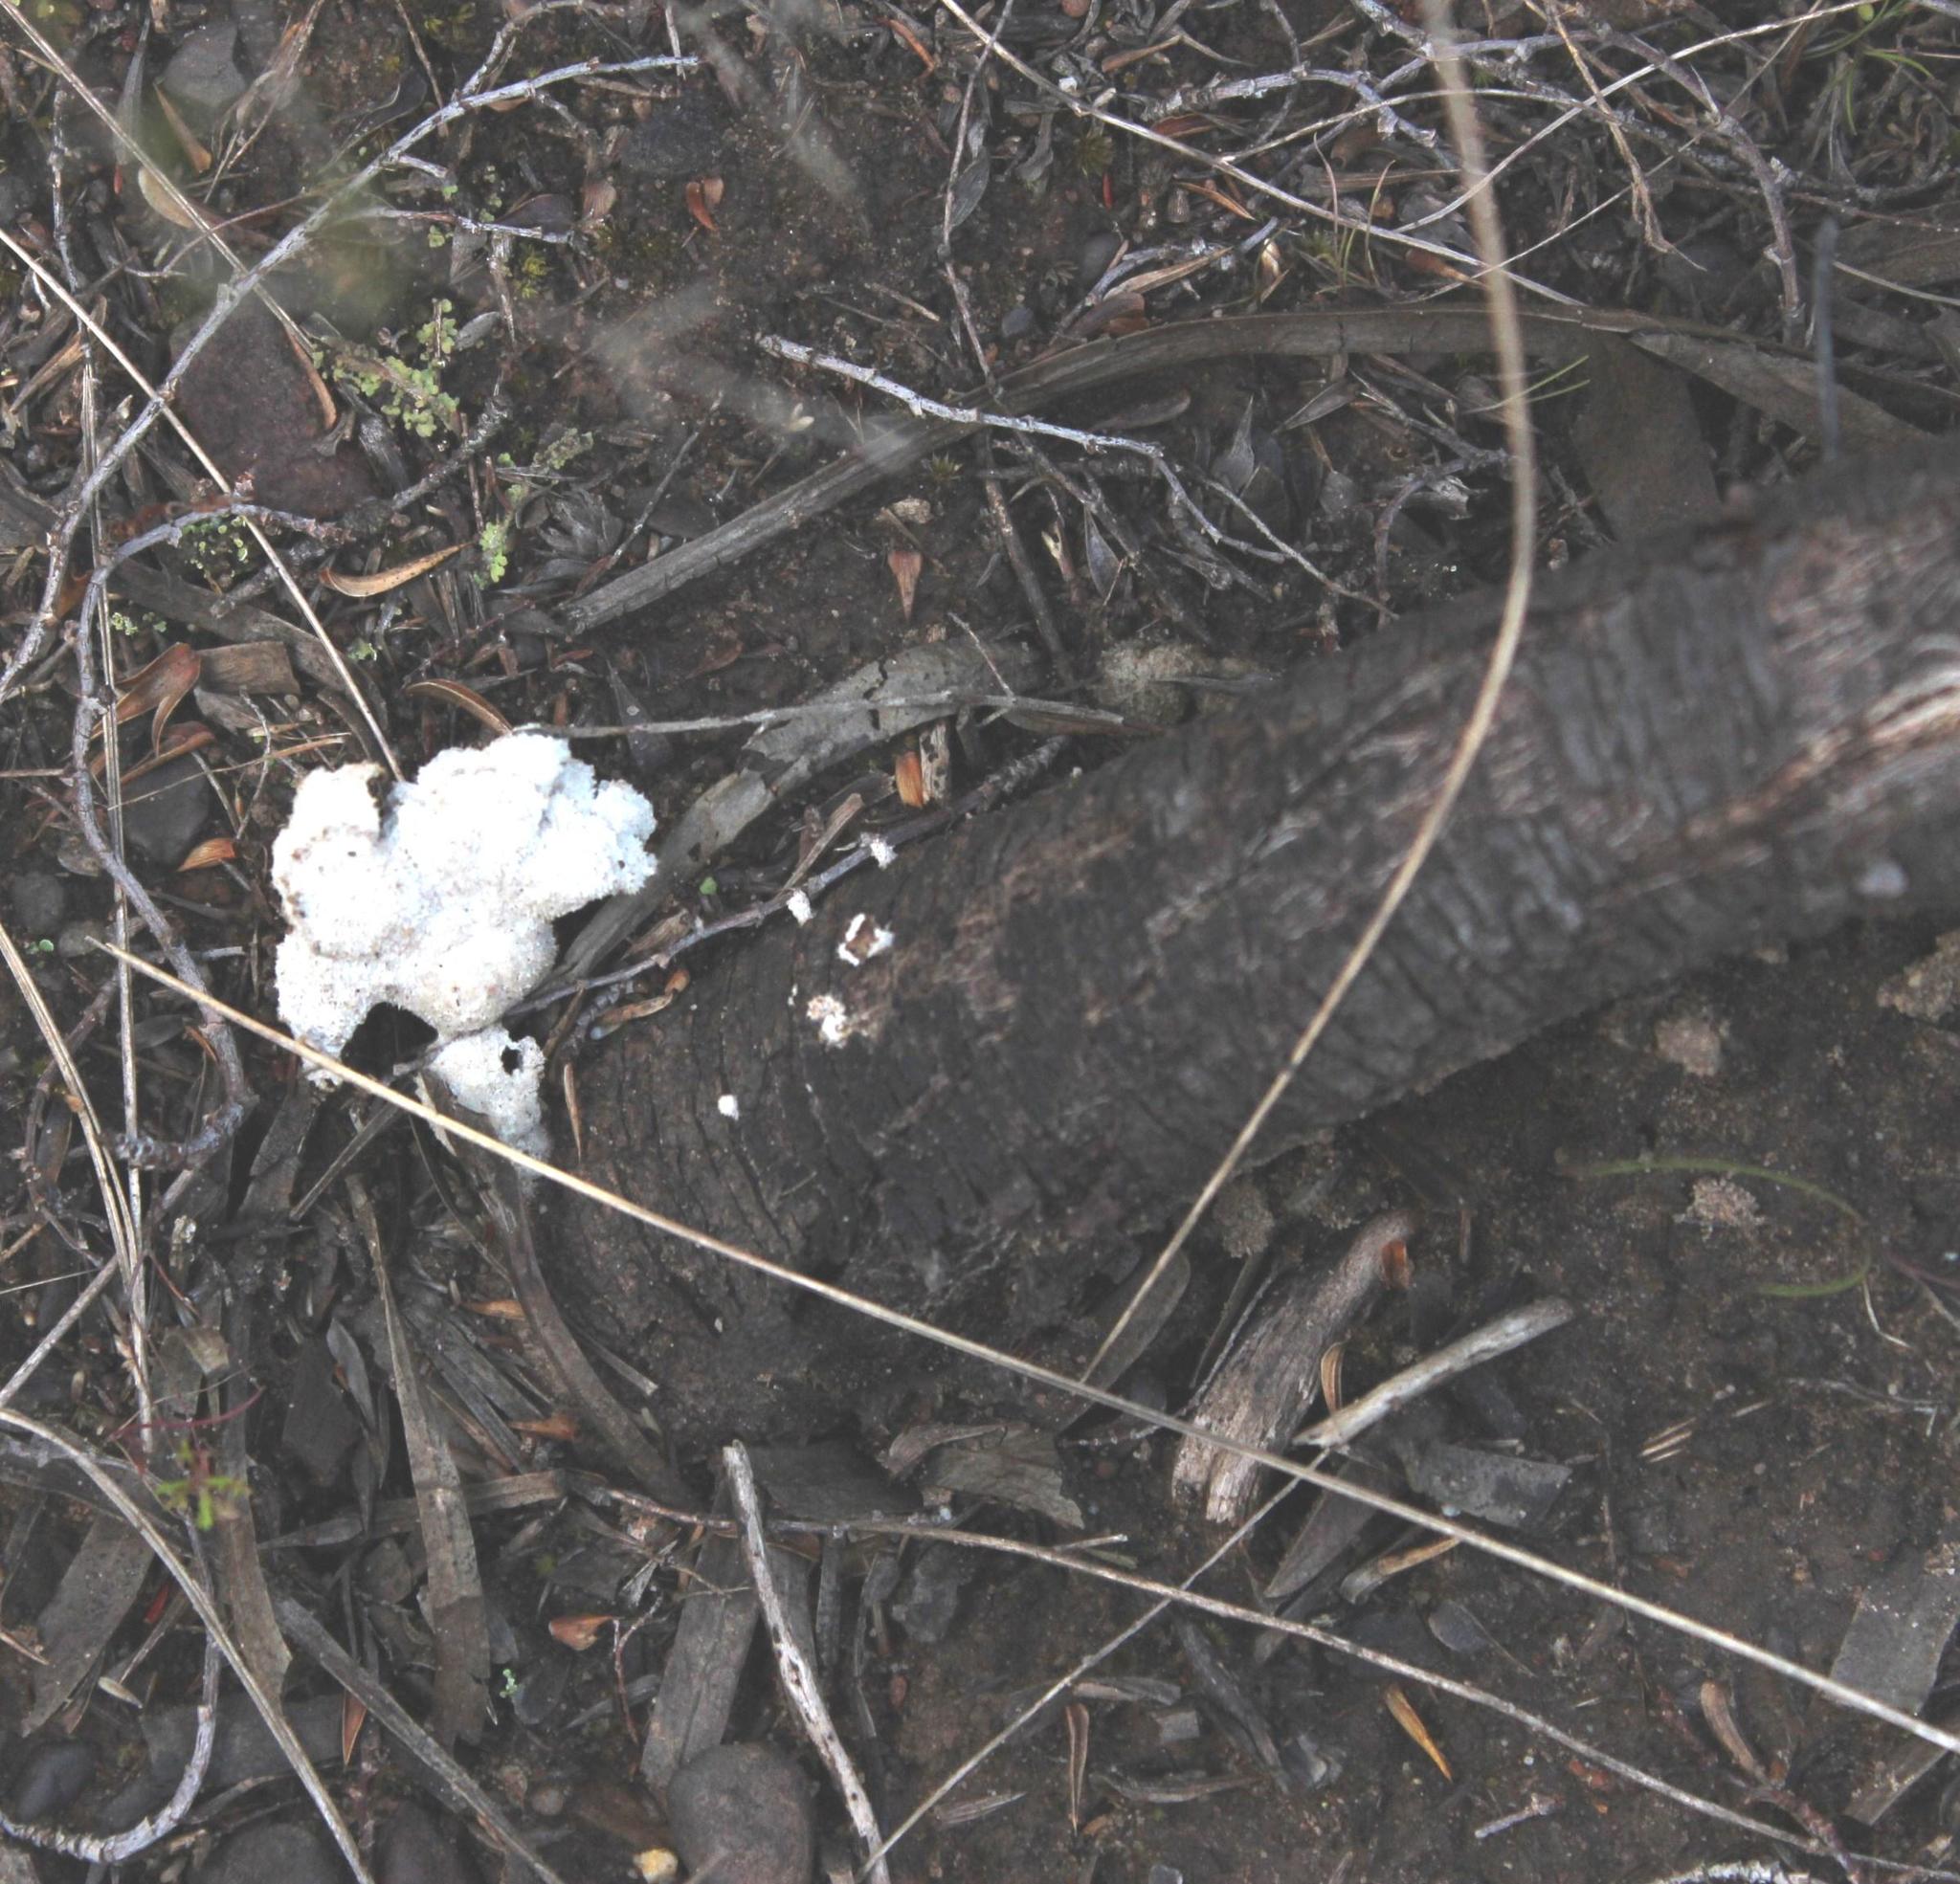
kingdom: Fungi
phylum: Basidiomycota
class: Agaricomycetes
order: Agaricales
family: Schizophyllaceae
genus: Schizophyllum
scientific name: Schizophyllum commune
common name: Common porecrust
